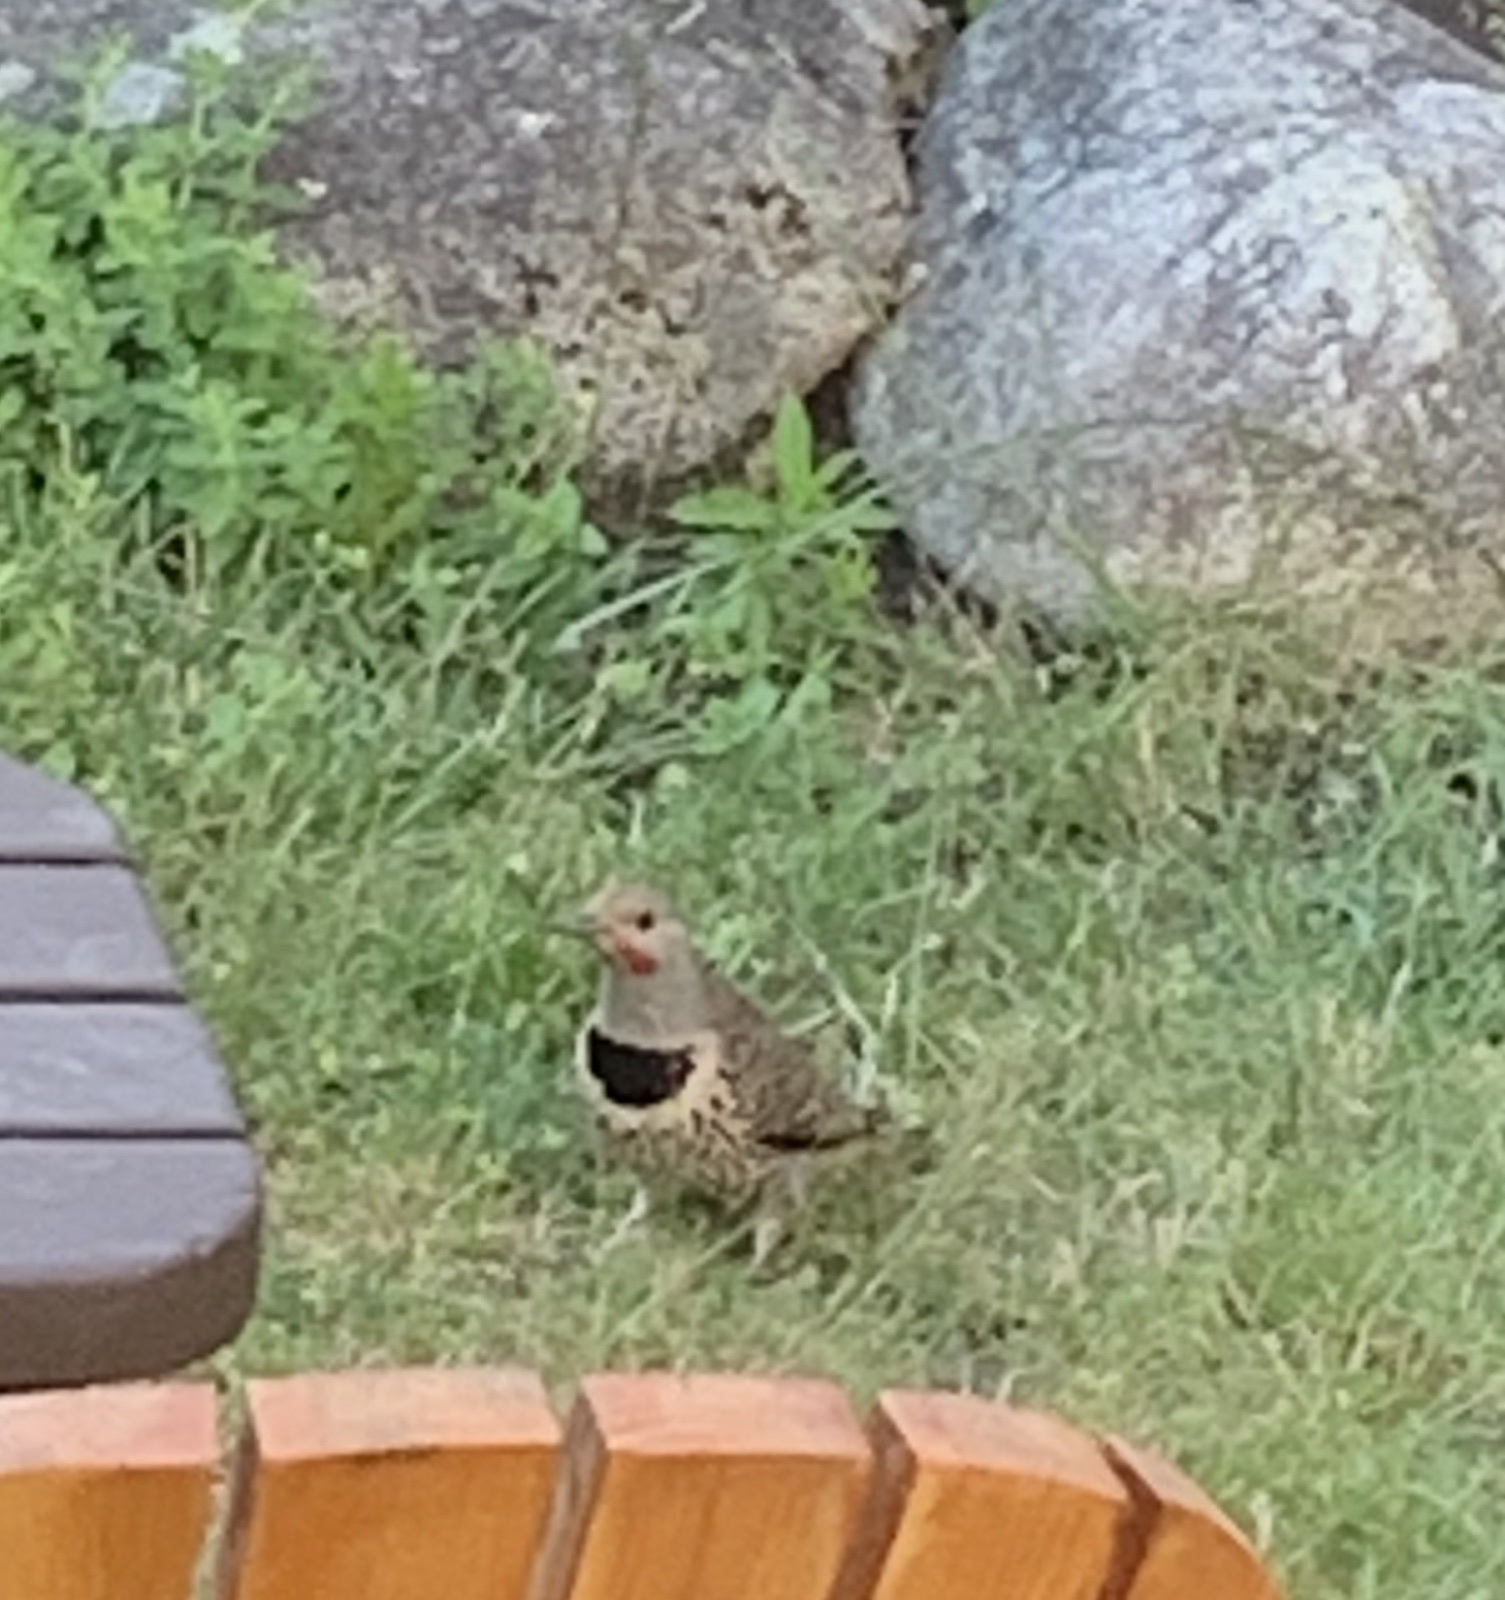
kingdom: Animalia
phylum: Chordata
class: Aves
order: Piciformes
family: Picidae
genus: Colaptes
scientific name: Colaptes auratus
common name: Northern flicker
